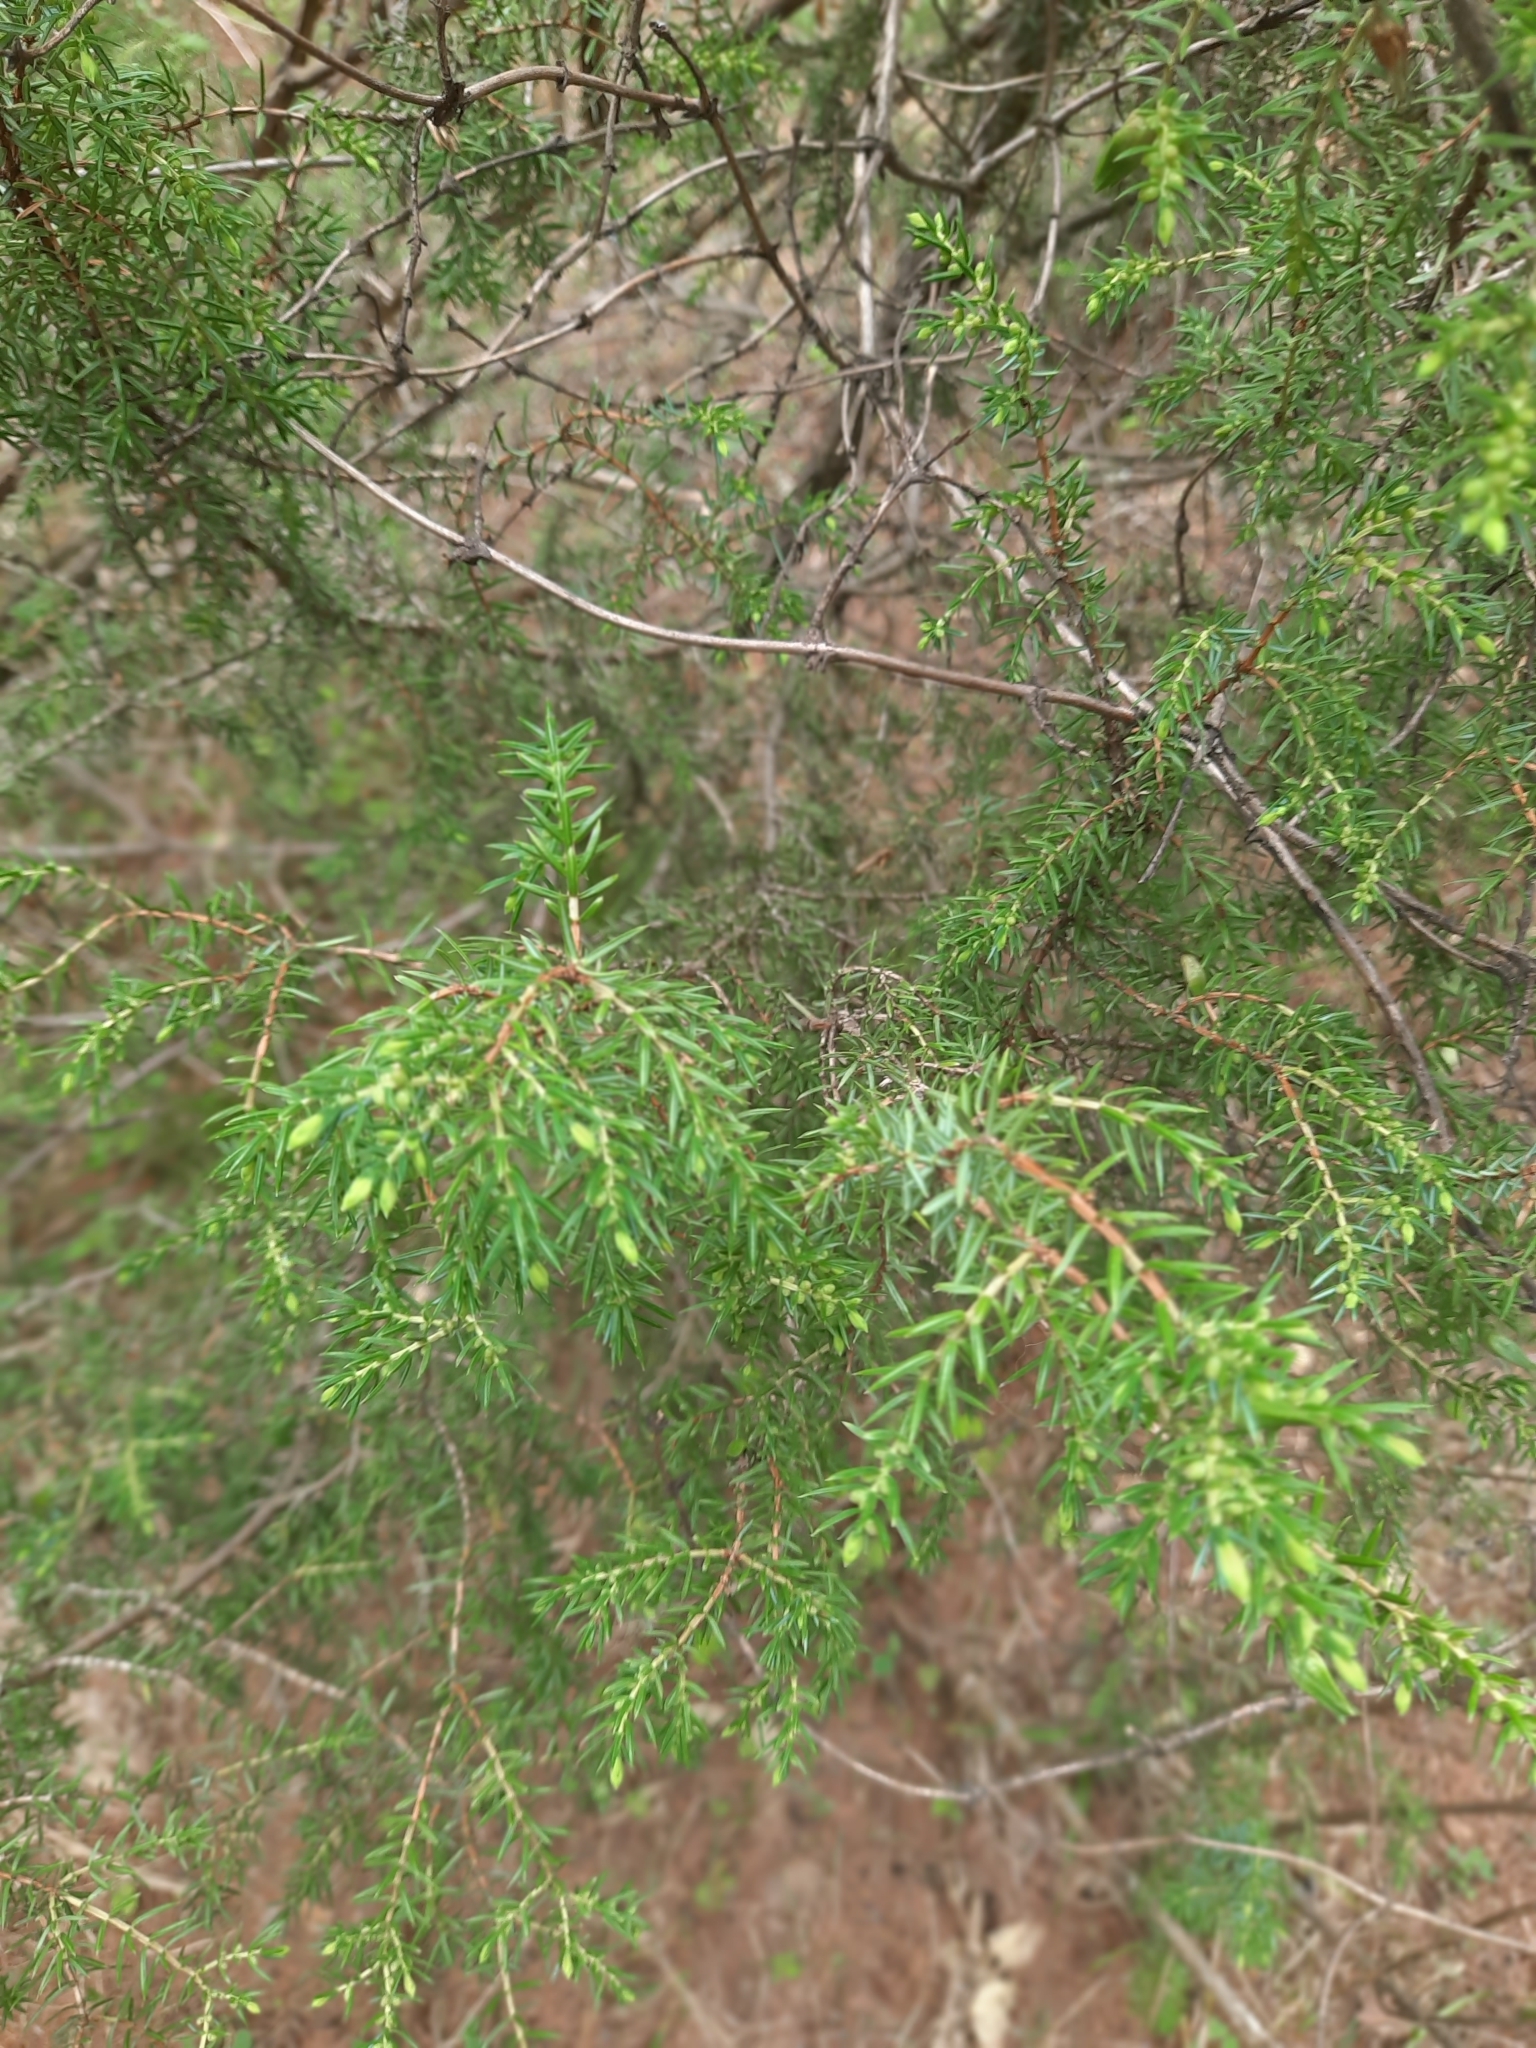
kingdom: Plantae
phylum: Tracheophyta
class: Pinopsida
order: Pinales
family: Cupressaceae
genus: Juniperus
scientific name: Juniperus communis
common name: Common juniper
